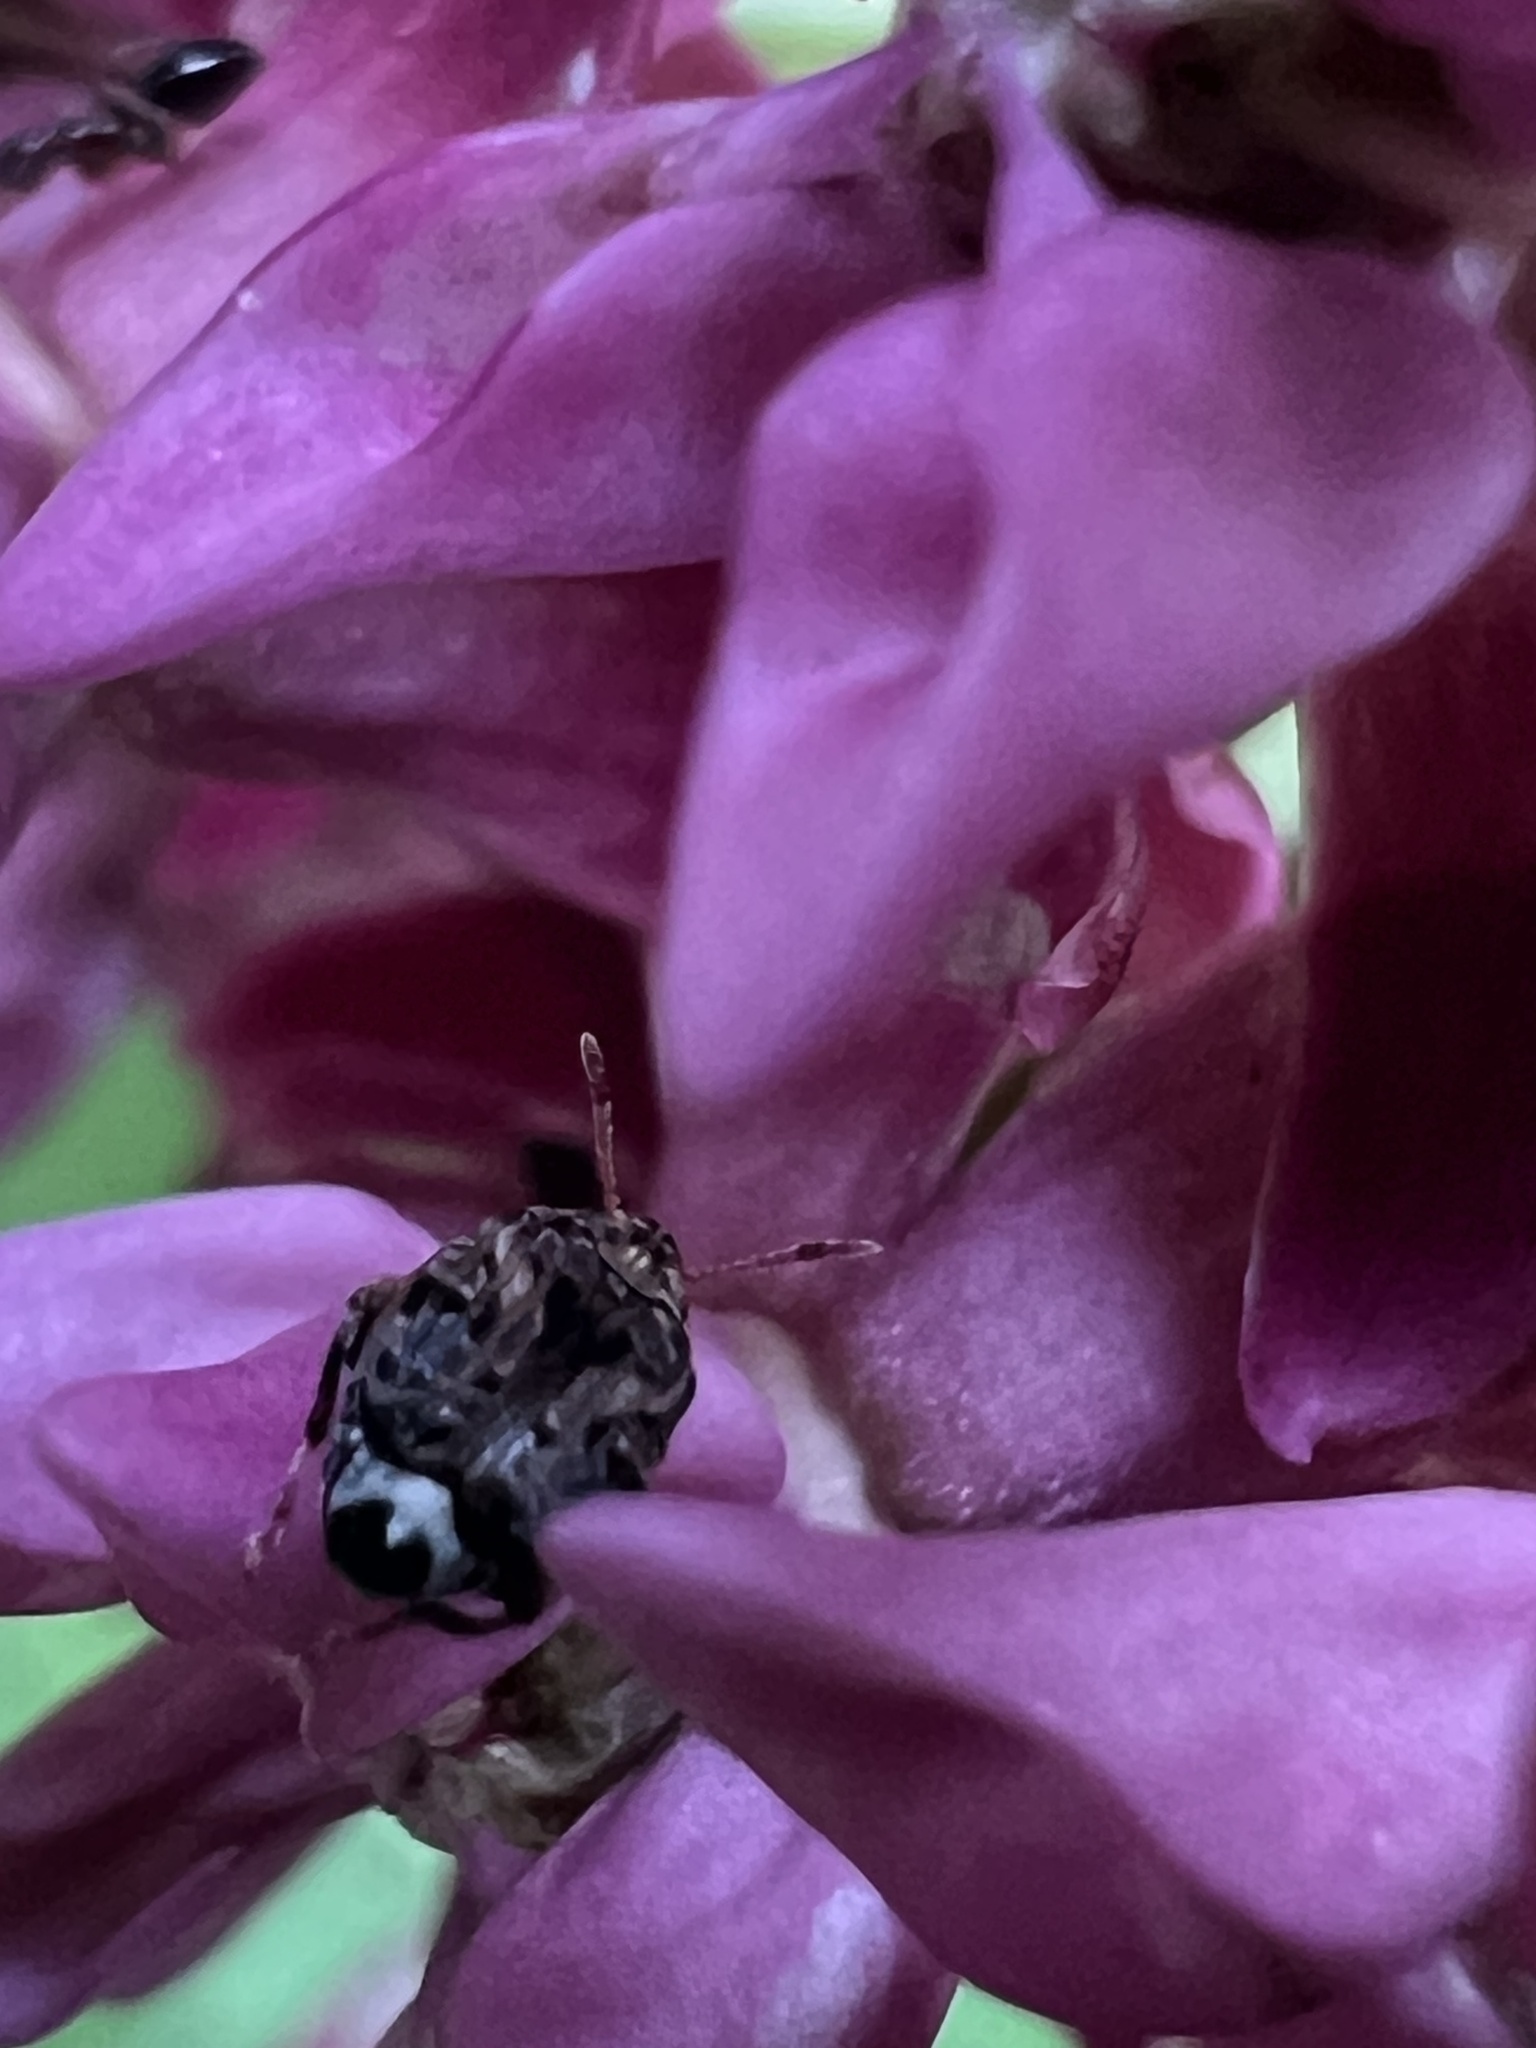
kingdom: Animalia
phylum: Arthropoda
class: Insecta
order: Coleoptera
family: Chrysomelidae
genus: Gibbobruchus
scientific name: Gibbobruchus mimus
